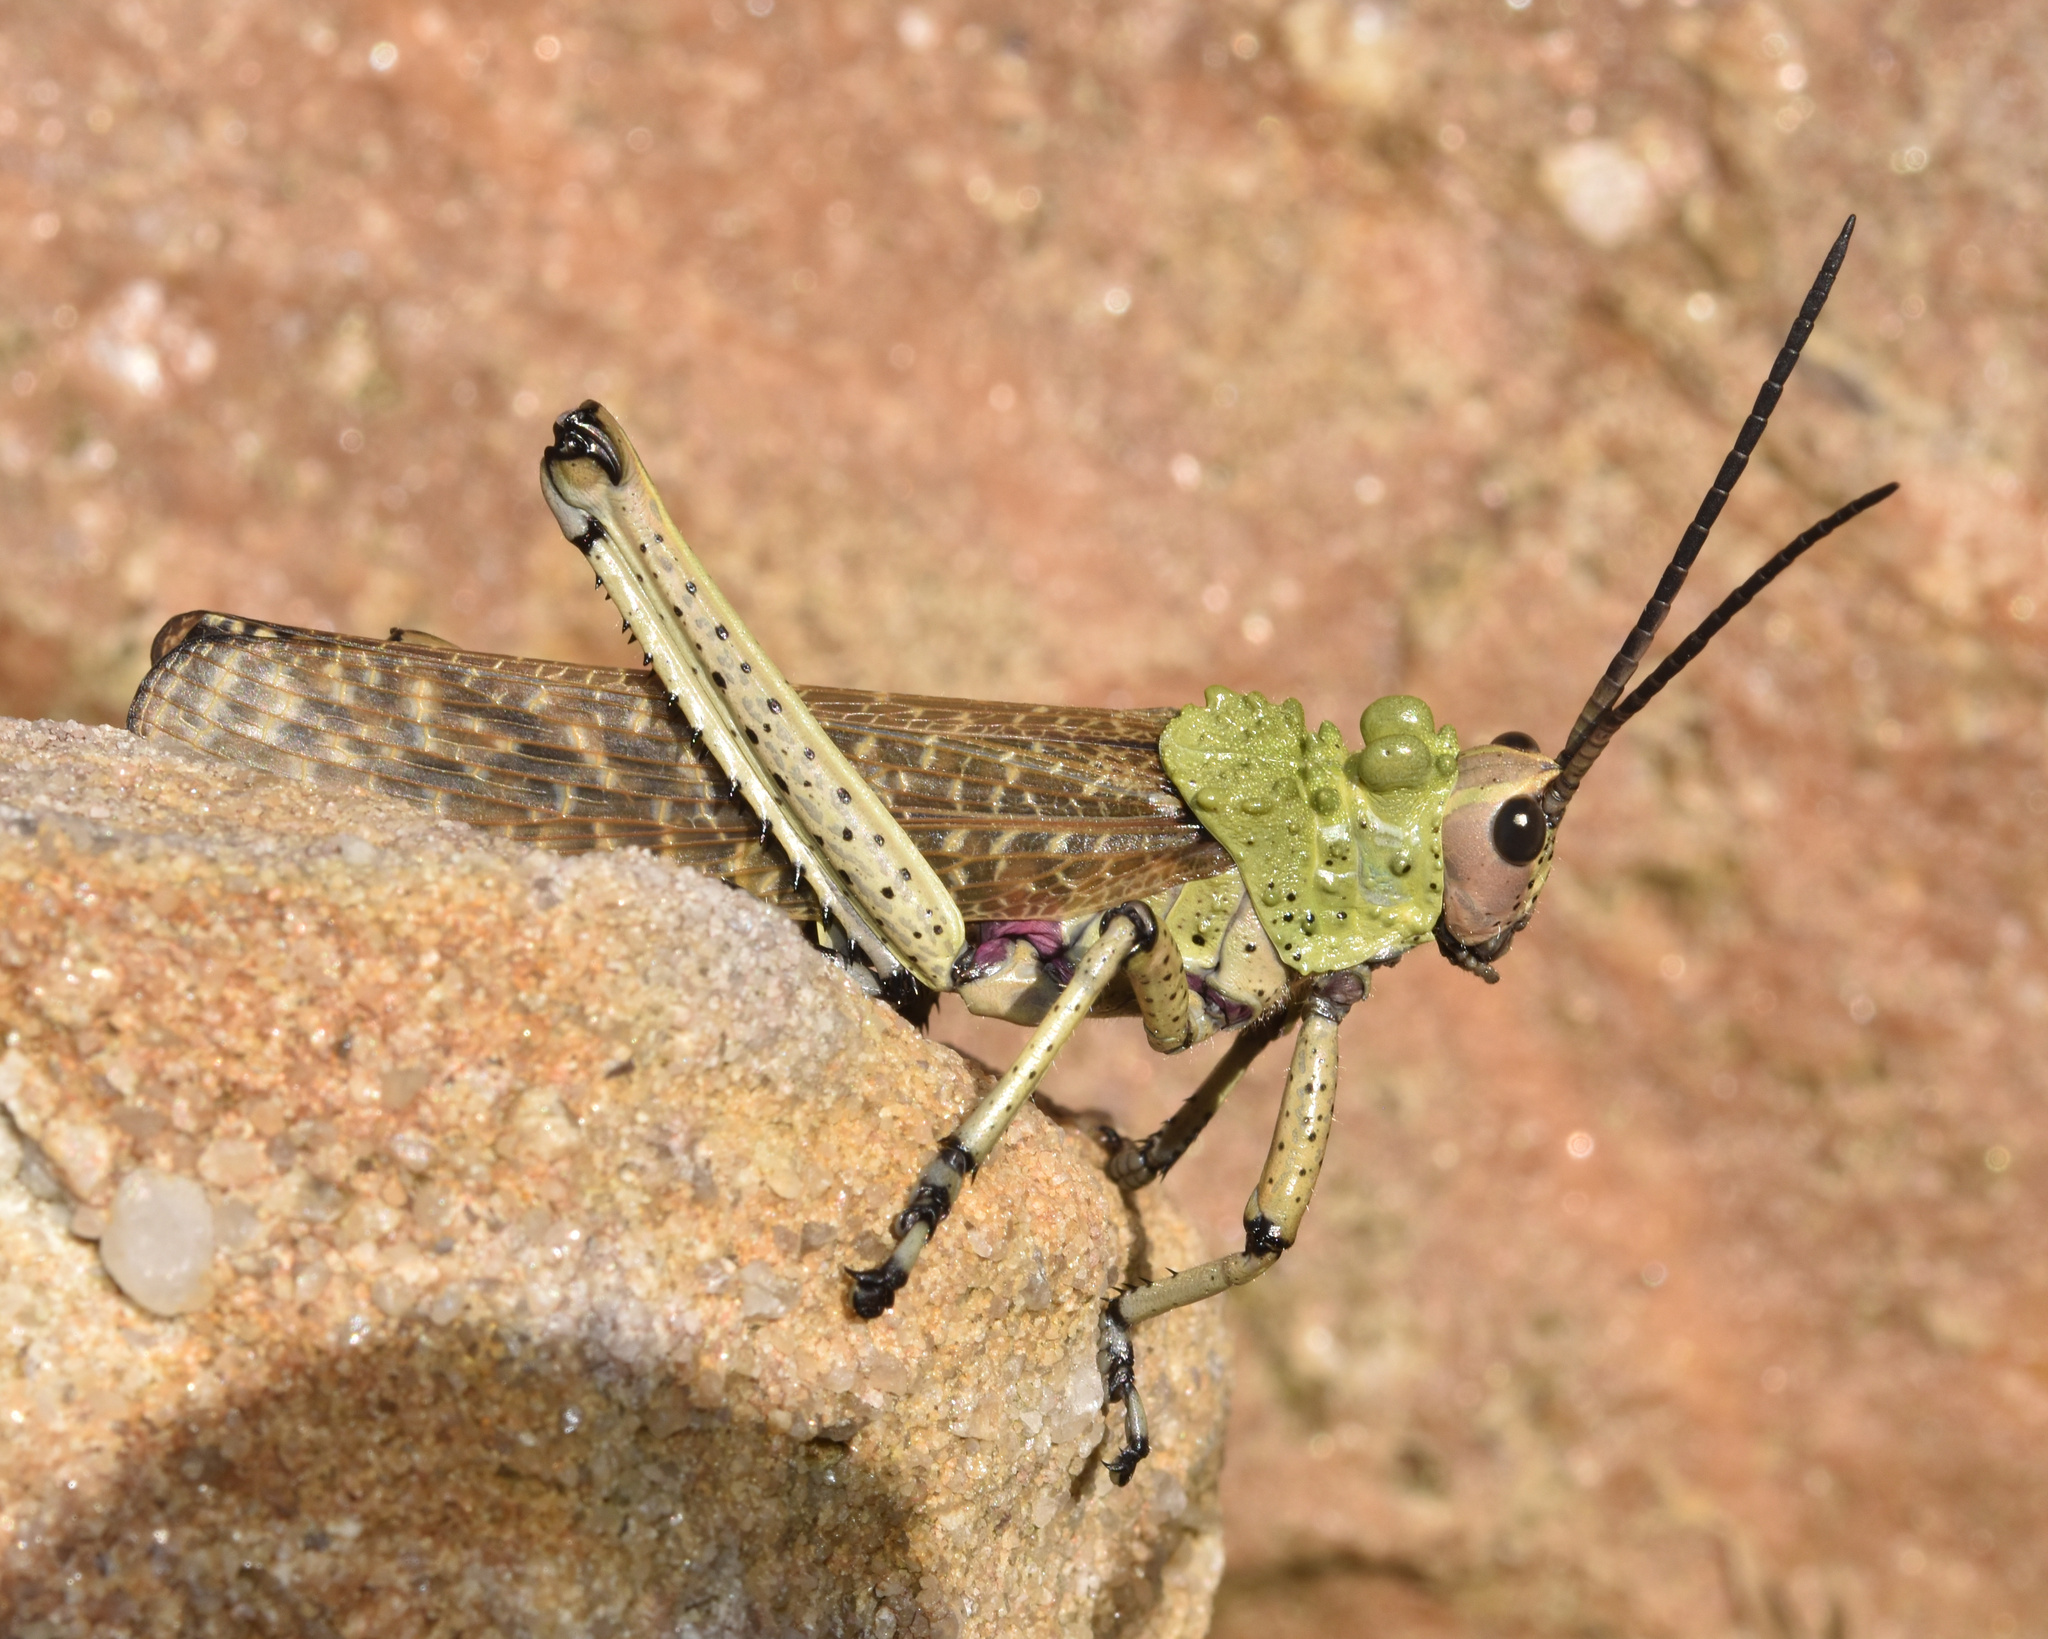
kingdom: Animalia
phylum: Arthropoda
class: Insecta
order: Orthoptera
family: Pyrgomorphidae
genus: Phymateus
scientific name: Phymateus leprosus
